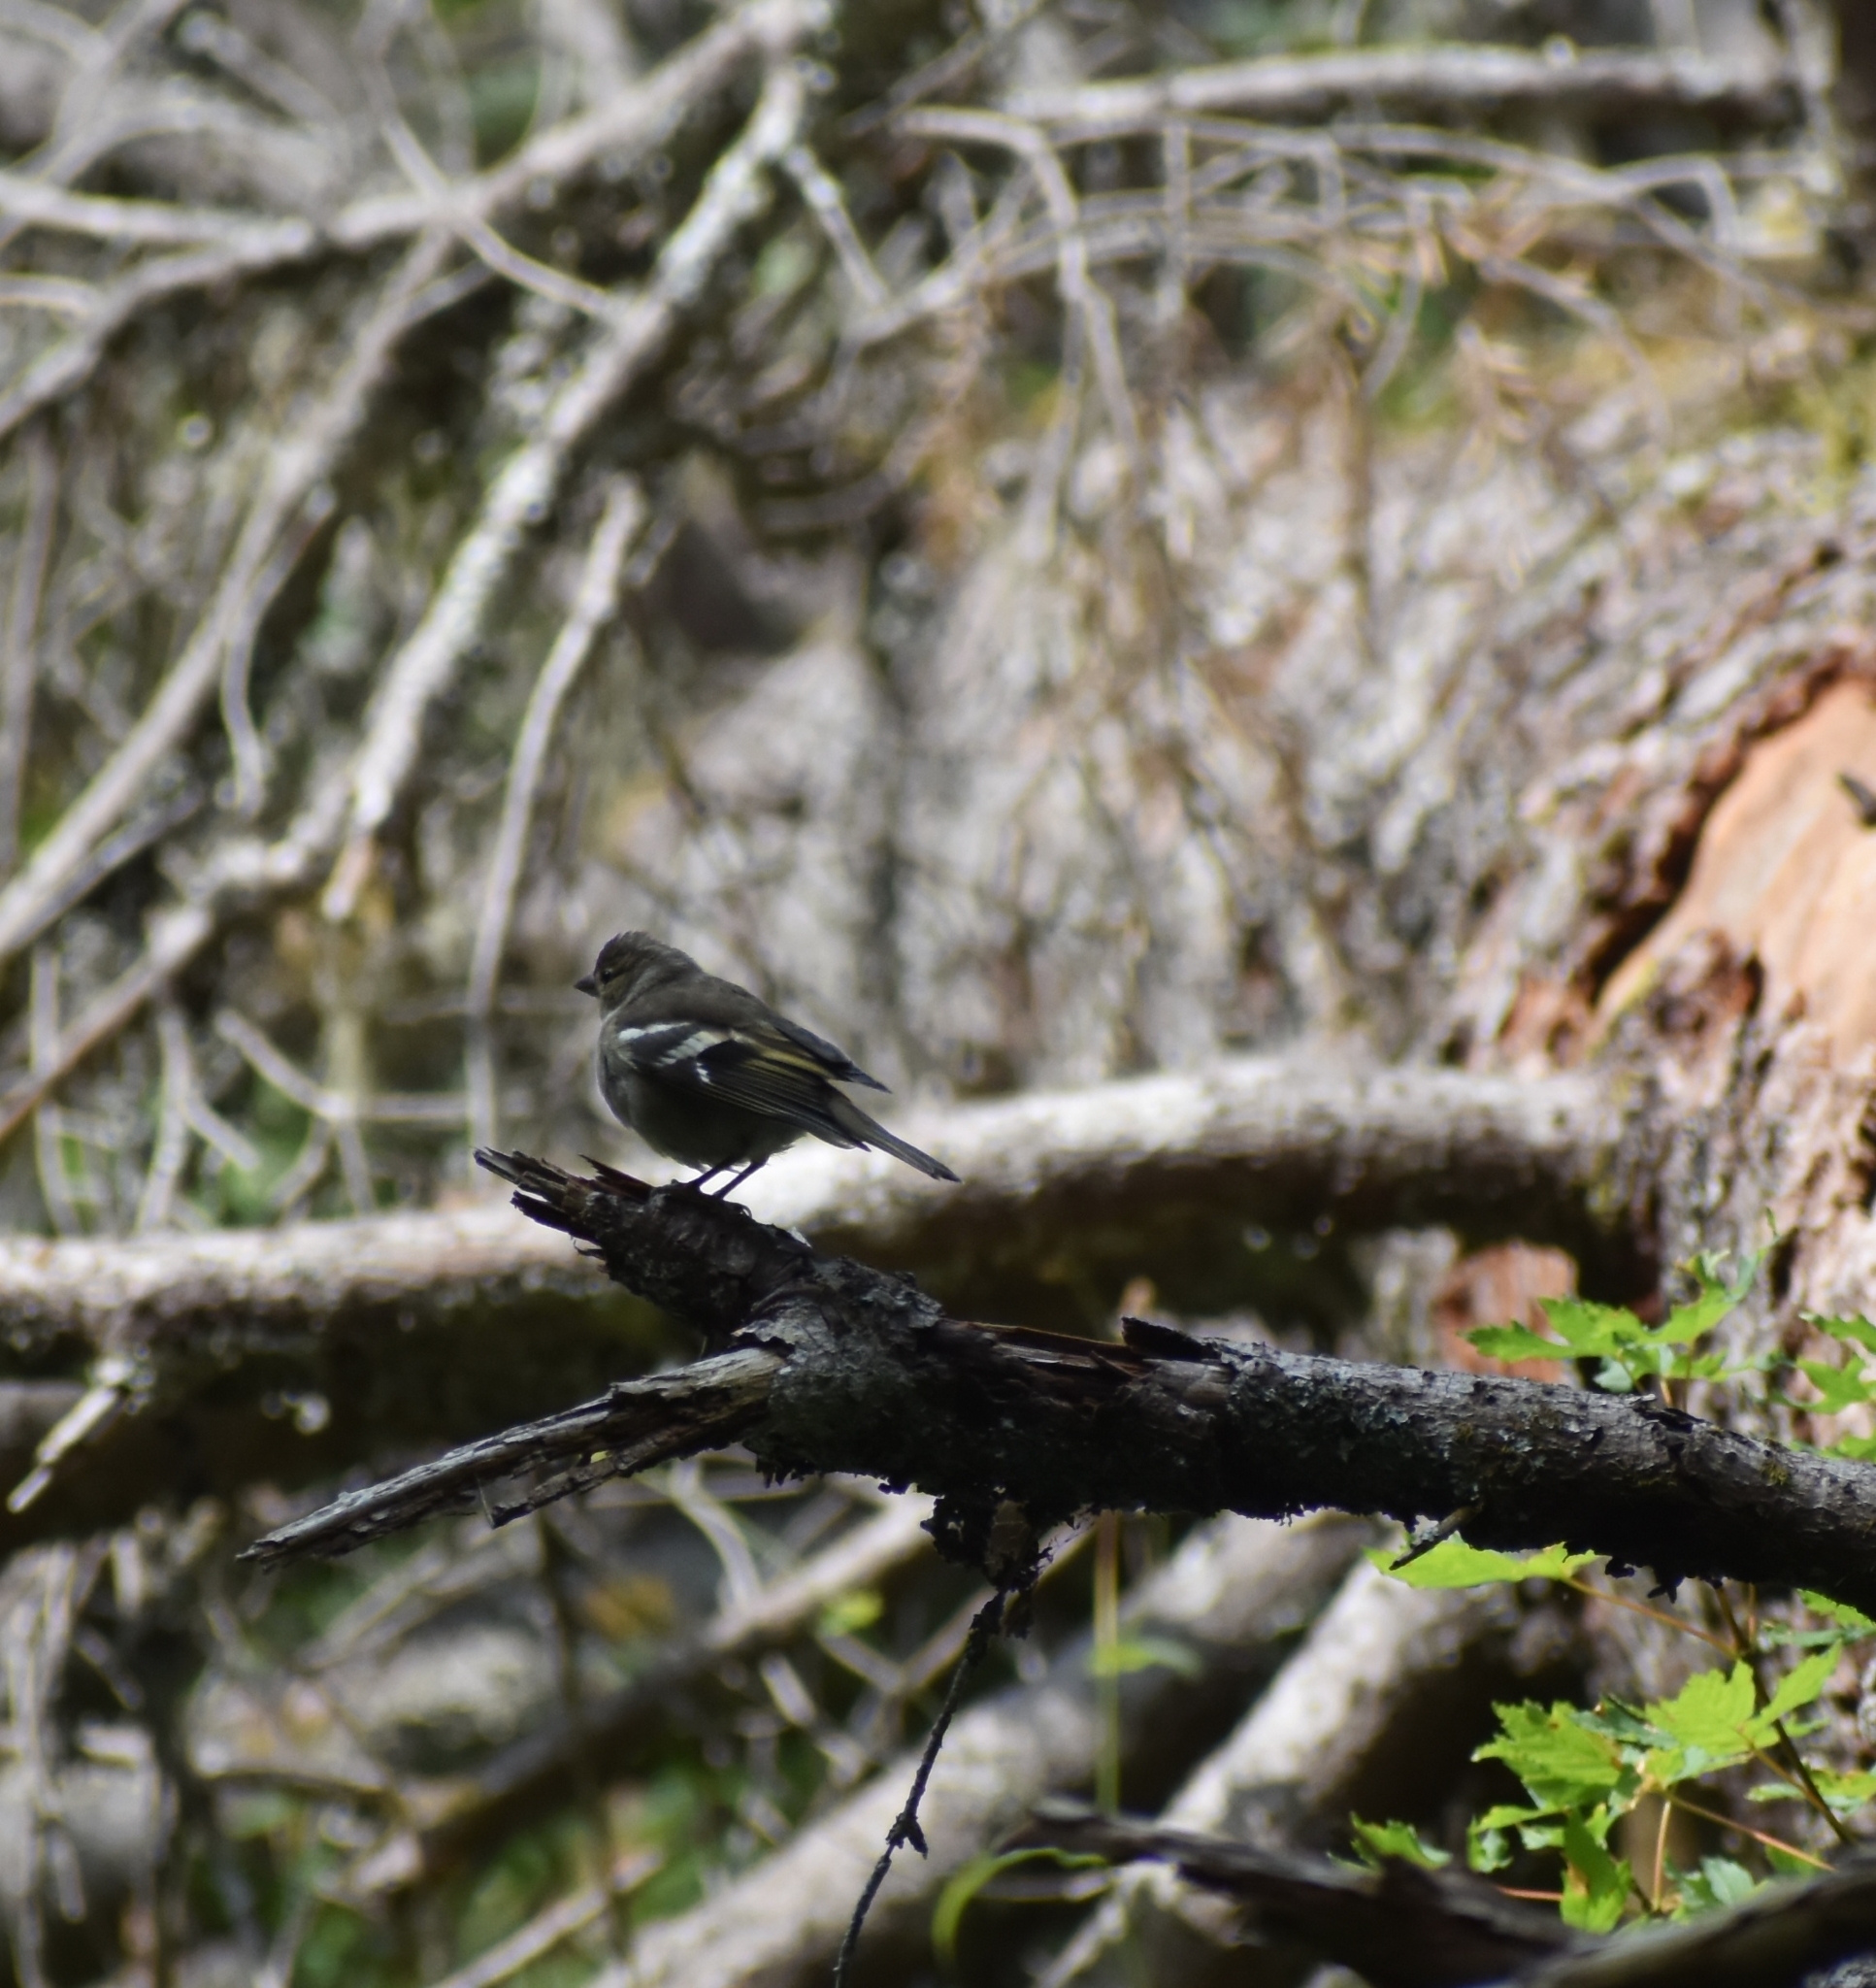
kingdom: Animalia
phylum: Chordata
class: Aves
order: Passeriformes
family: Fringillidae
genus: Fringilla
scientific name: Fringilla coelebs
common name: Common chaffinch
